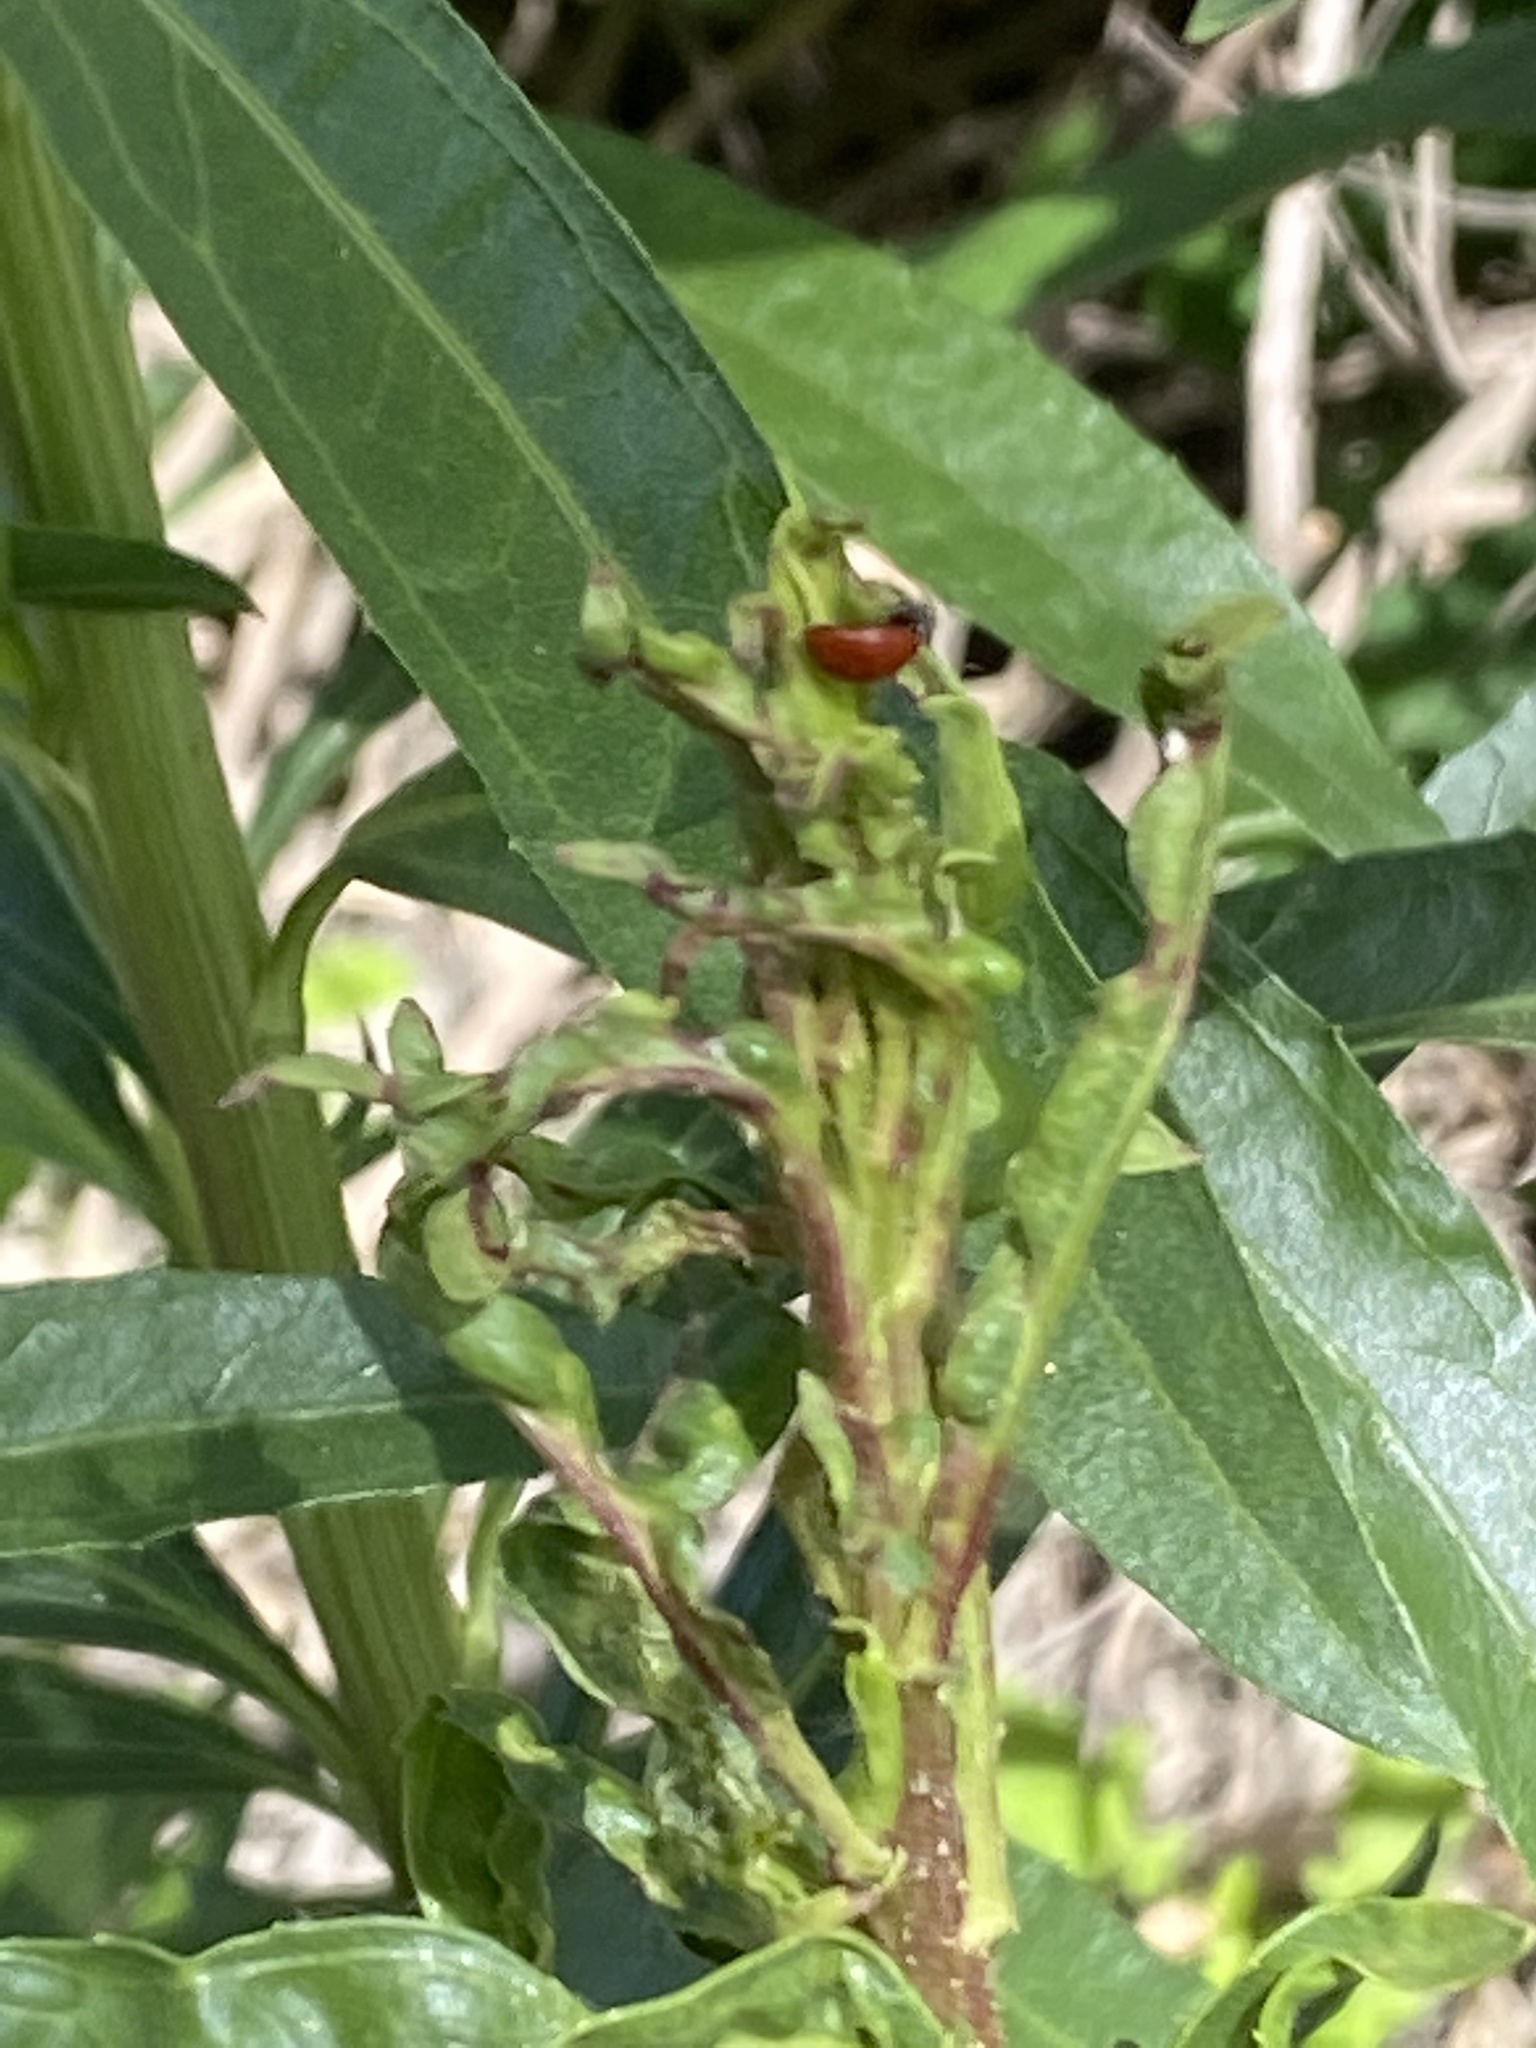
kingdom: Animalia
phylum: Arthropoda
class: Insecta
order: Coleoptera
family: Coccinellidae
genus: Cycloneda
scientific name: Cycloneda sanguinea
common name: Ladybird beetle
